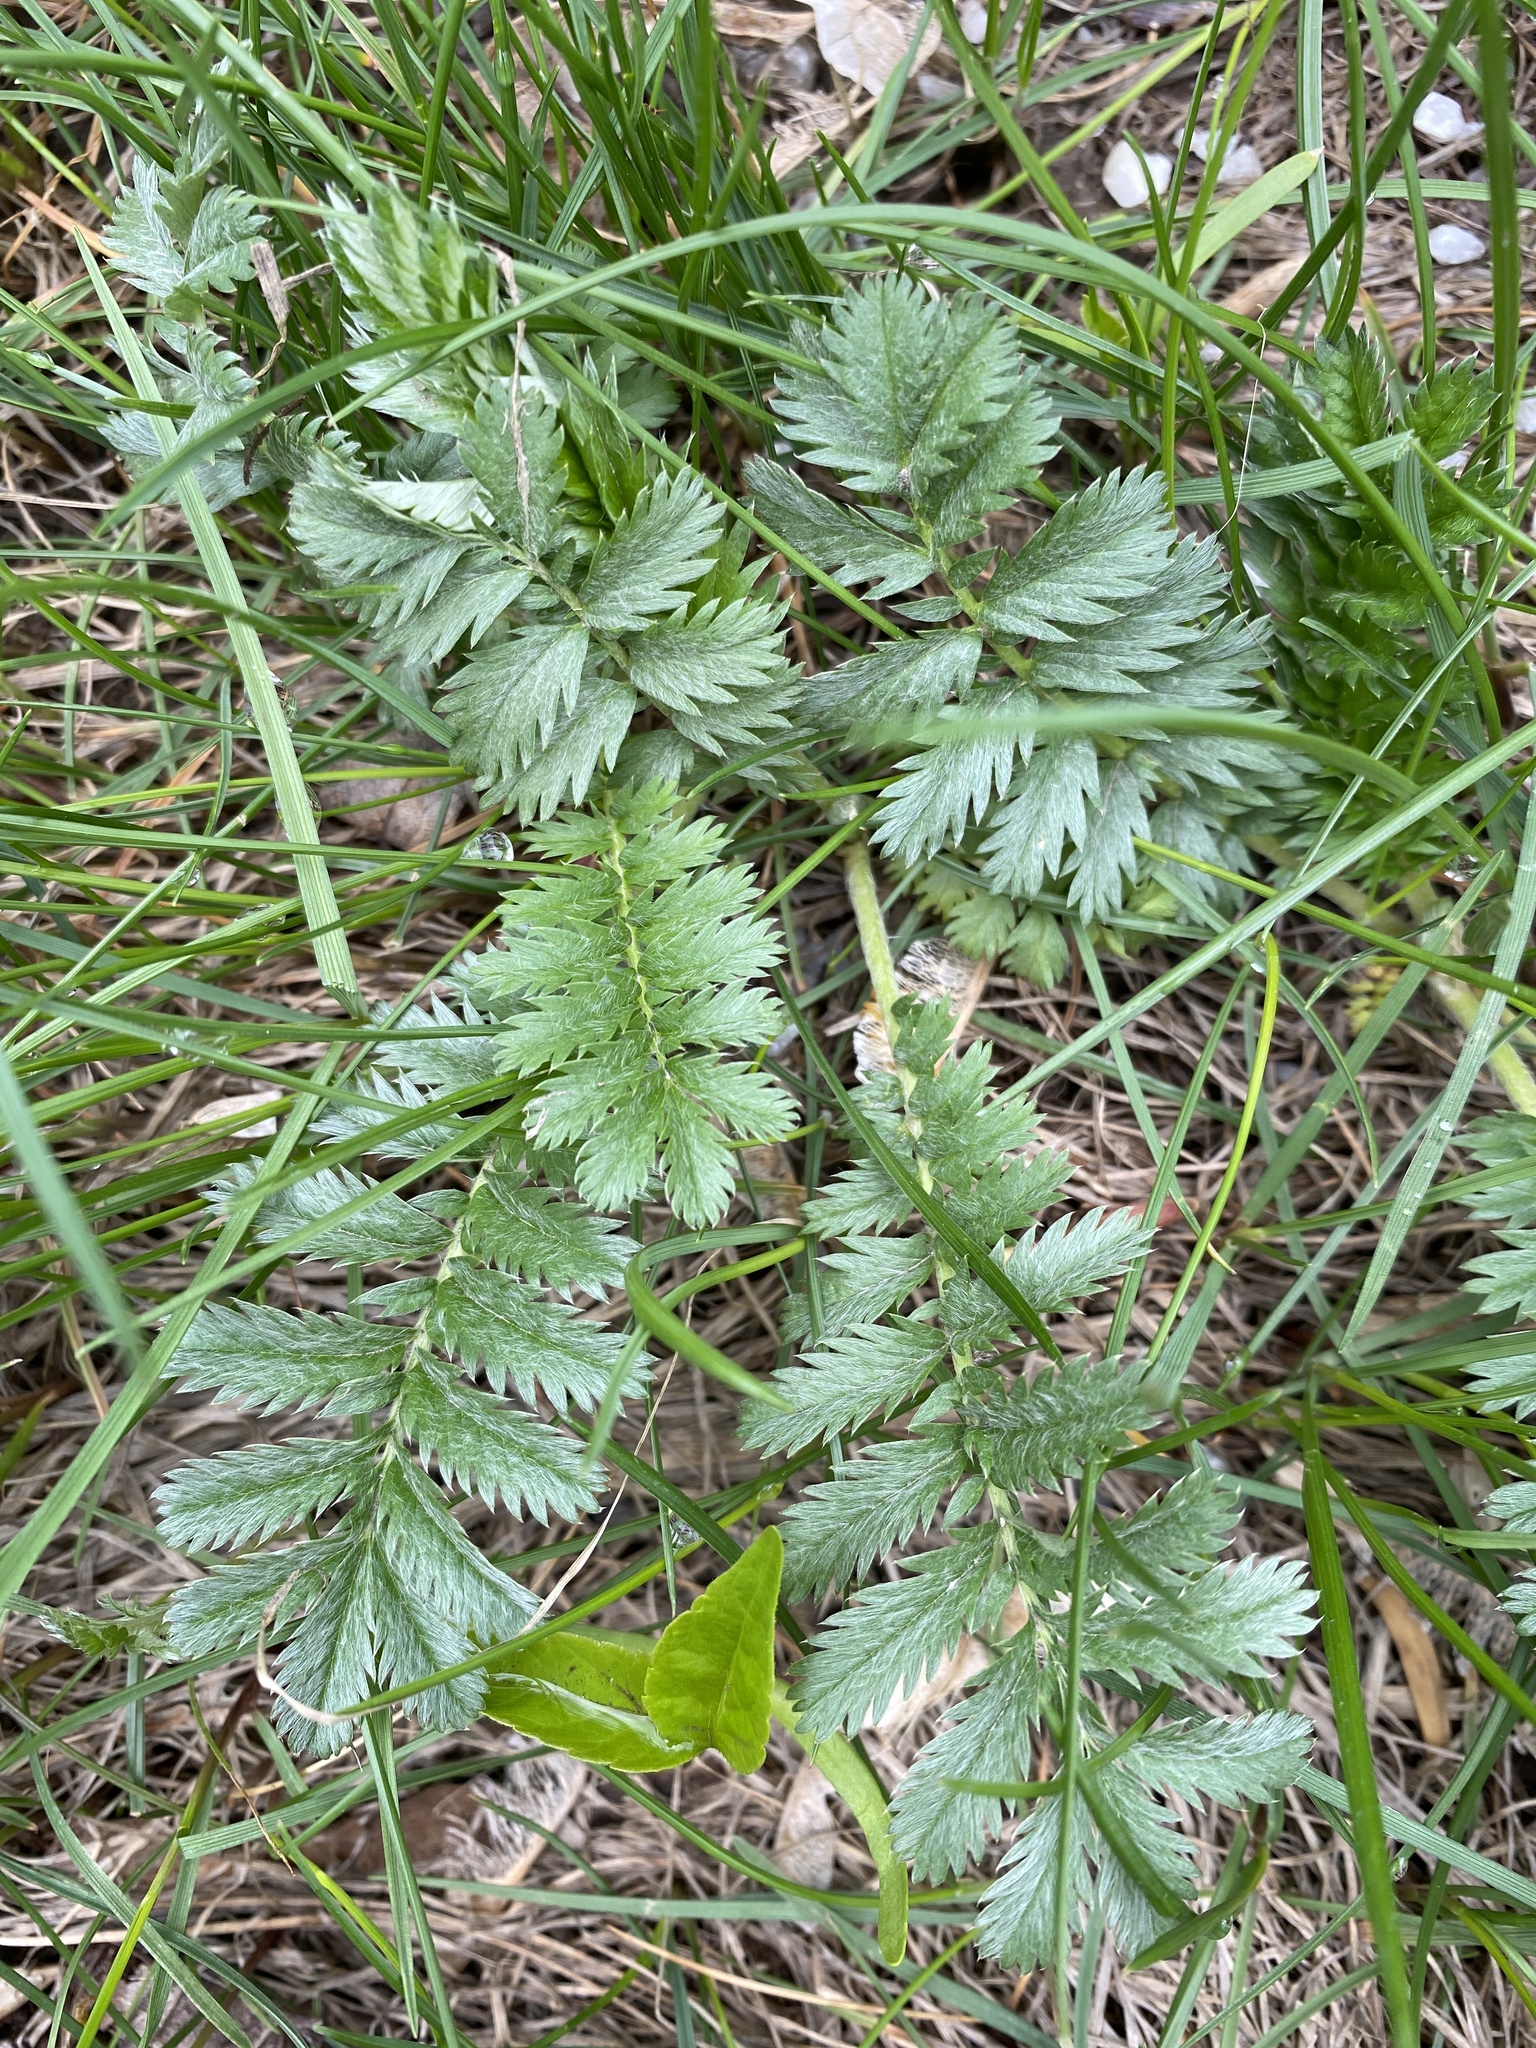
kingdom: Plantae
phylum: Tracheophyta
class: Magnoliopsida
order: Rosales
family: Rosaceae
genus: Argentina
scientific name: Argentina anserina
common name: Common silverweed
